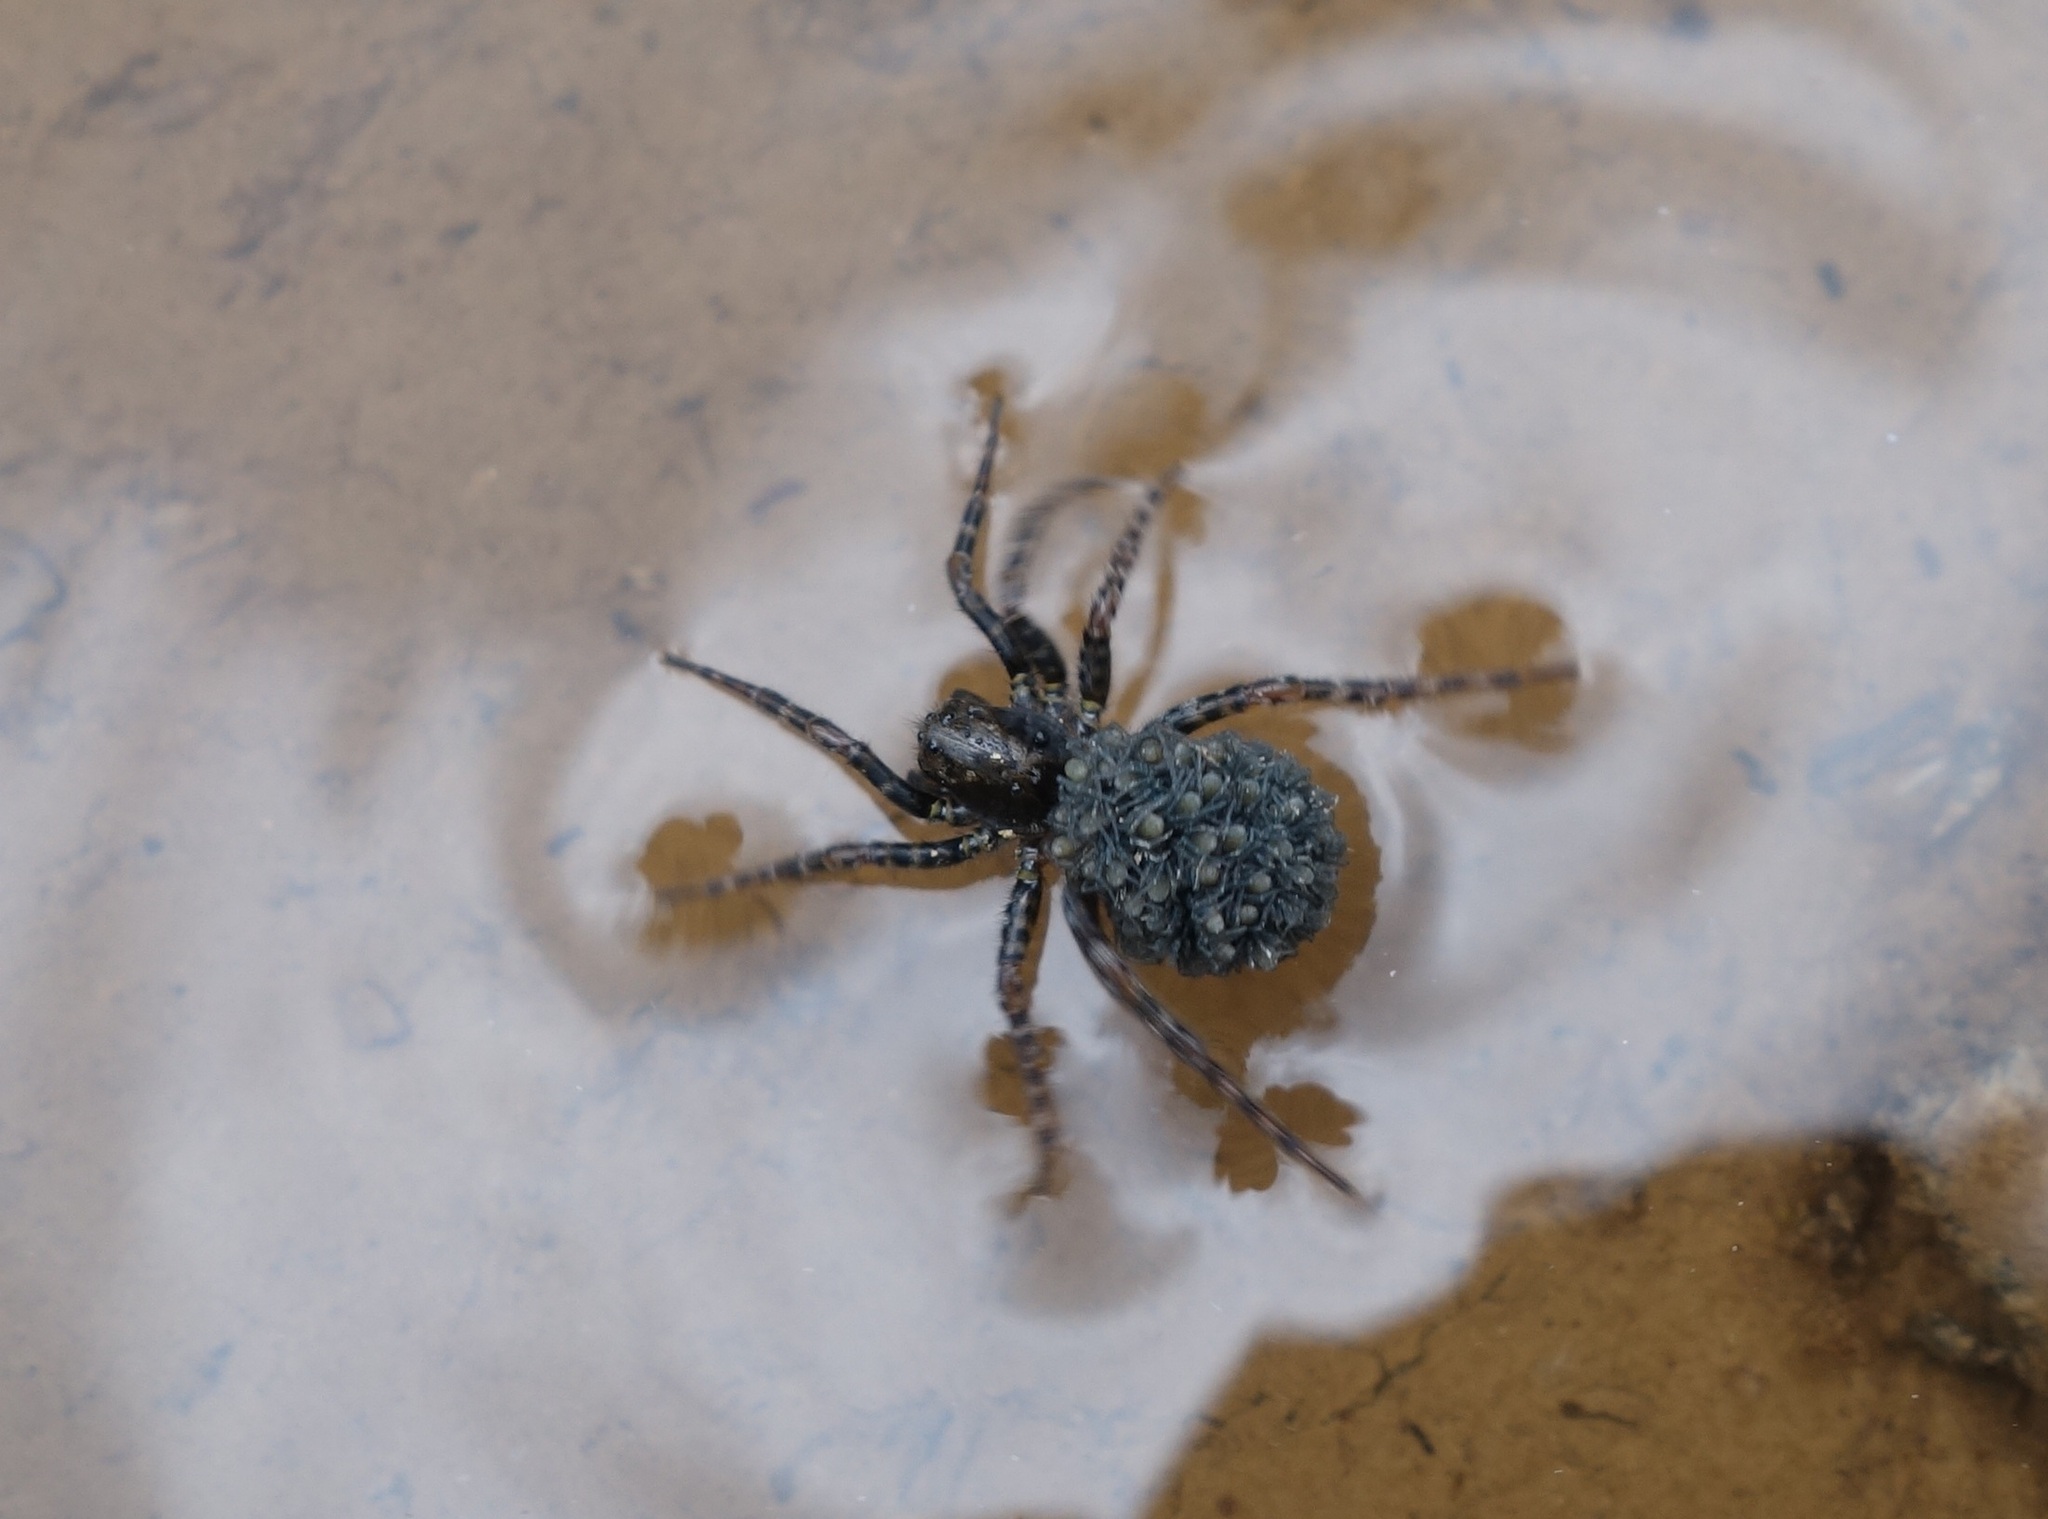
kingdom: Animalia
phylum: Arthropoda
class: Arachnida
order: Araneae
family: Lycosidae
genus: Arctosa
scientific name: Arctosa leopardus
